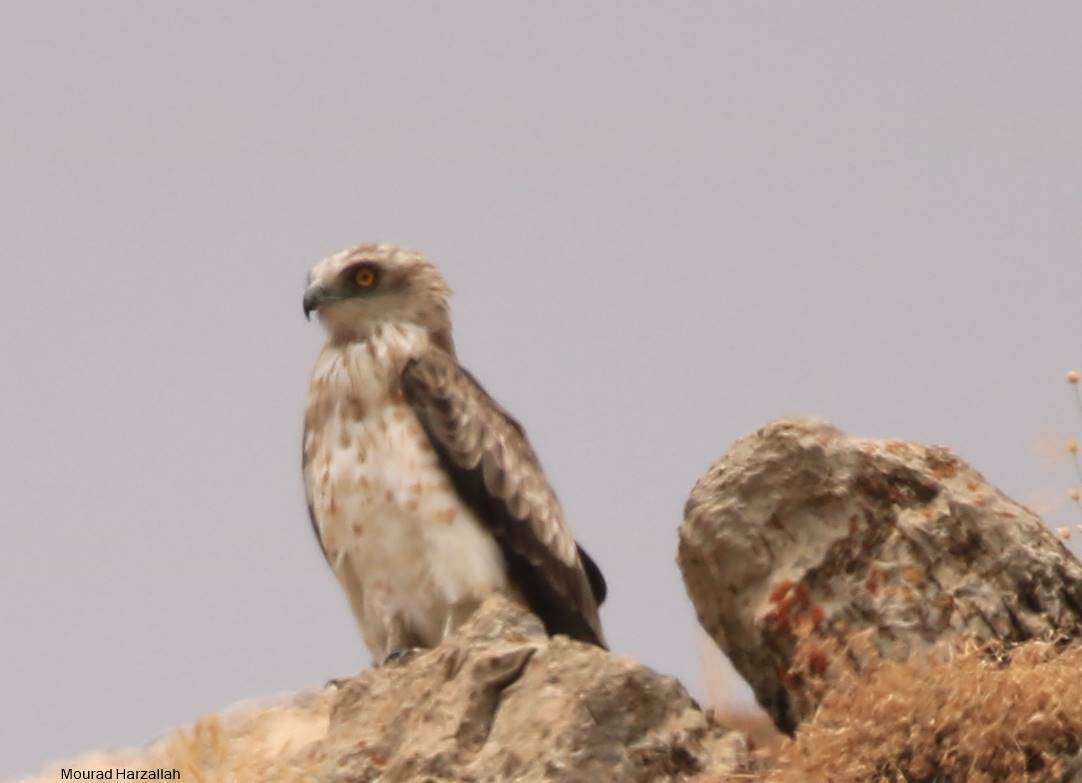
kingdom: Animalia
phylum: Chordata
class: Aves
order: Accipitriformes
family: Accipitridae
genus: Circaetus
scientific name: Circaetus gallicus
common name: Short-toed snake eagle
